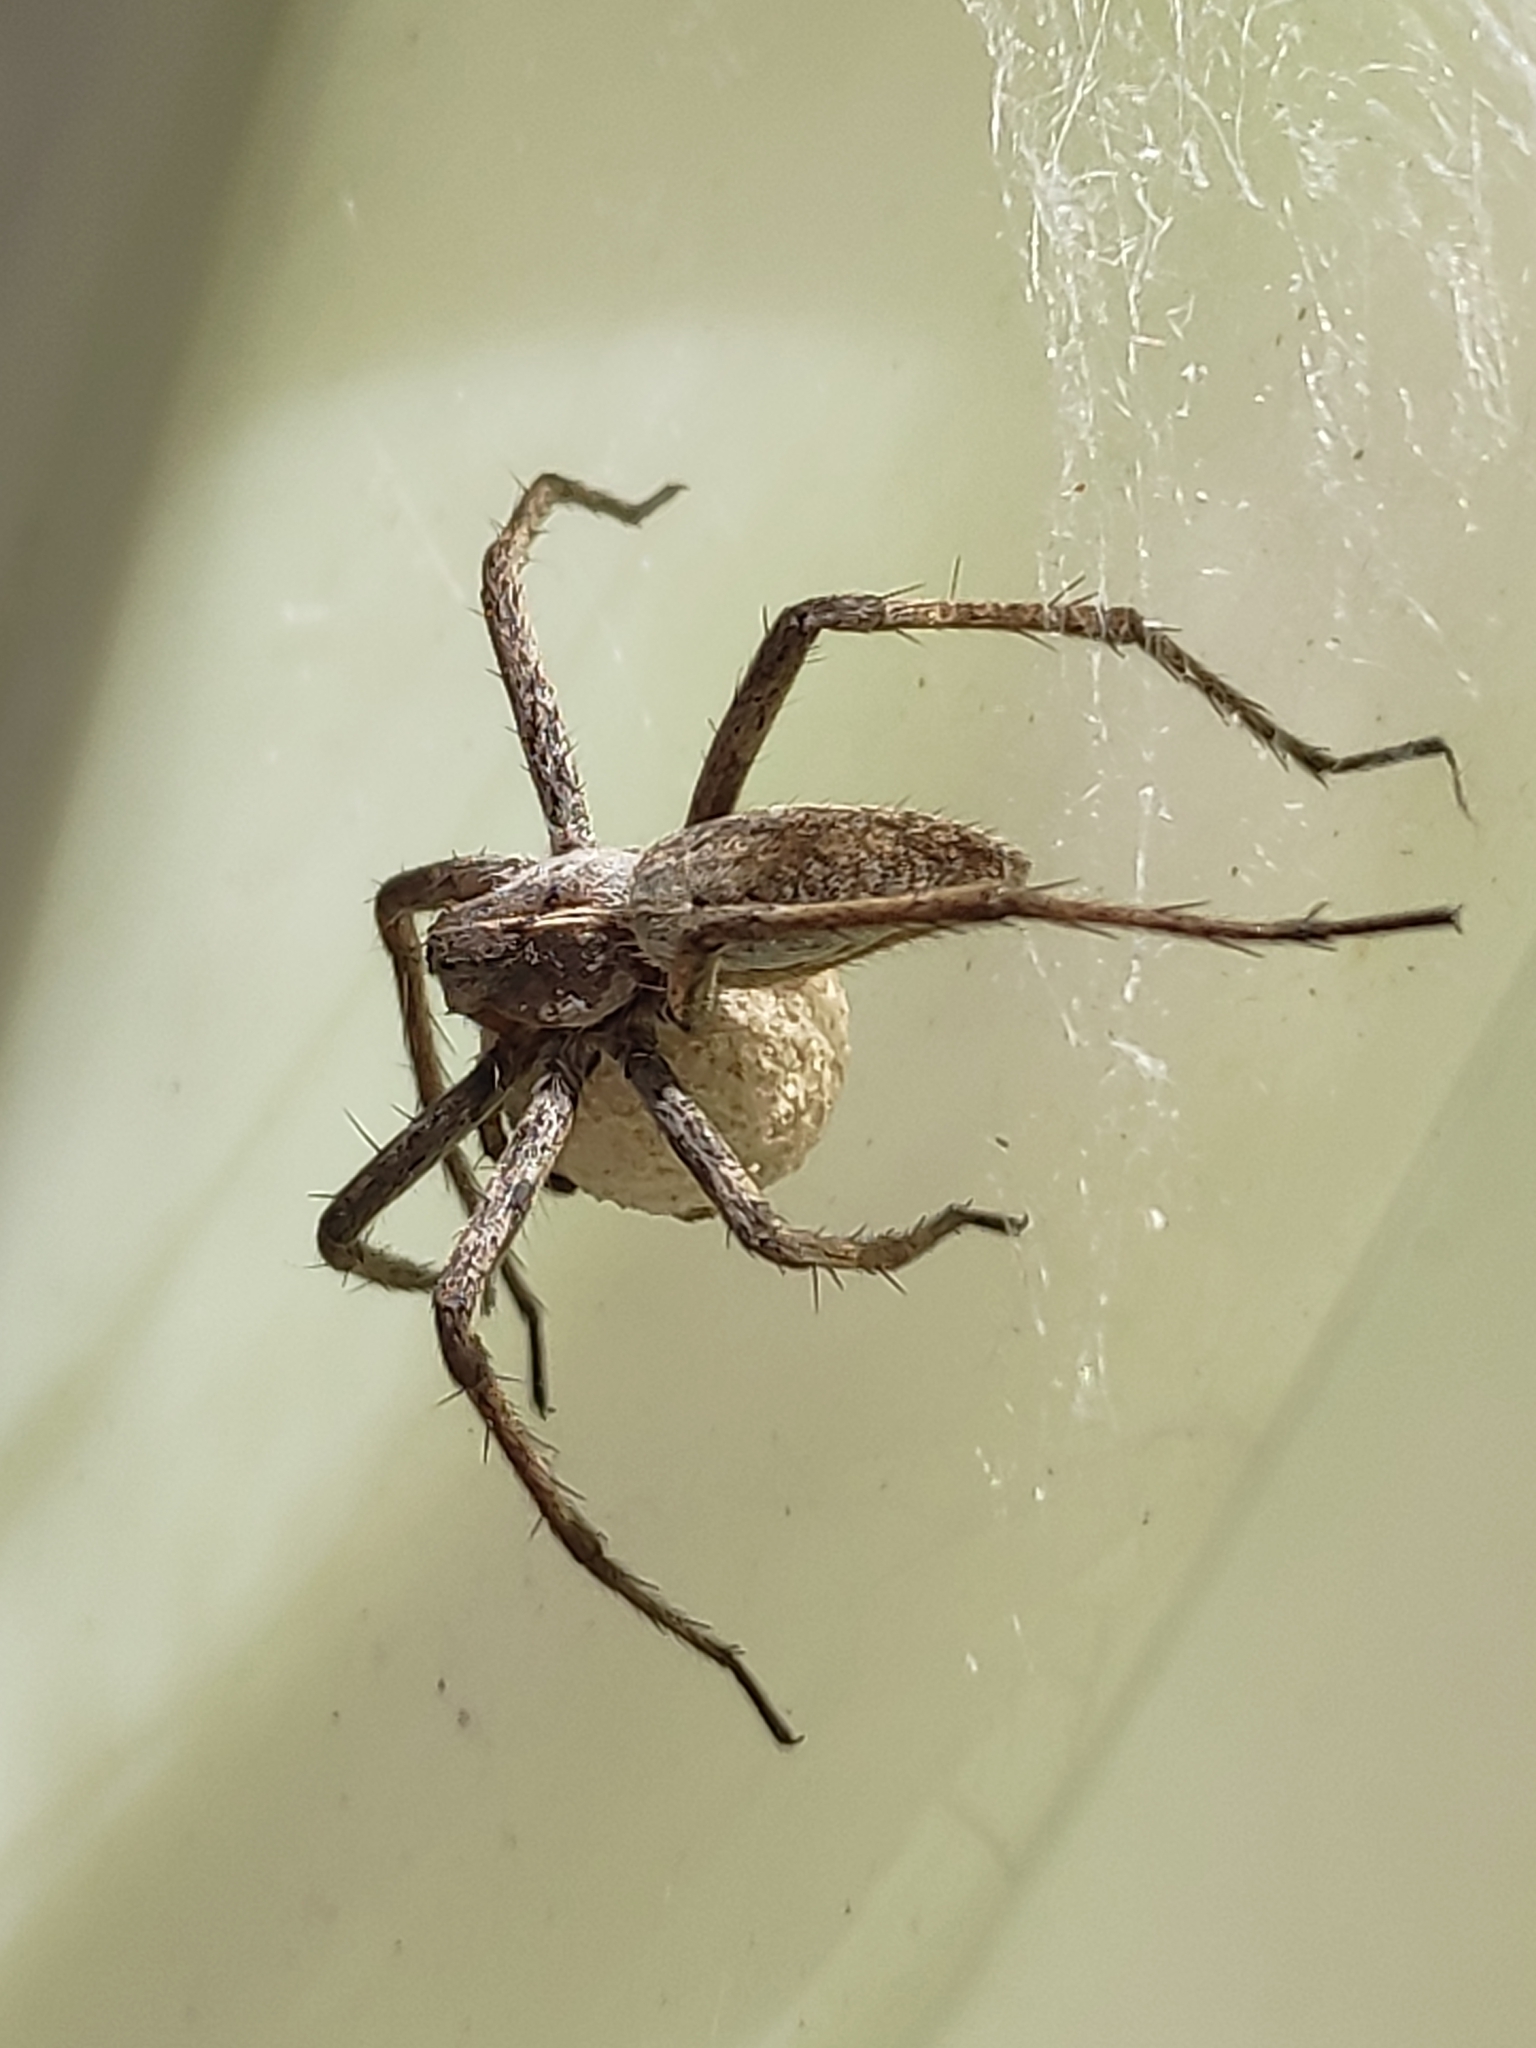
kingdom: Animalia
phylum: Arthropoda
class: Arachnida
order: Araneae
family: Pisauridae
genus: Pisaura
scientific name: Pisaura mirabilis
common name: Tent spider
